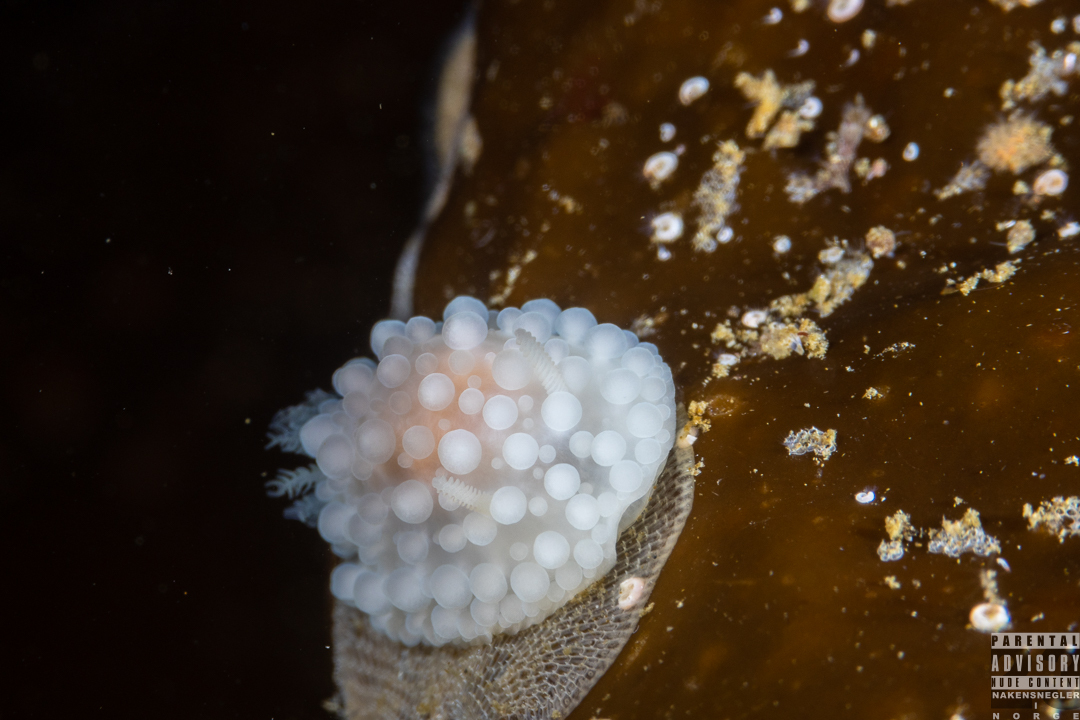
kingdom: Animalia
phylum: Mollusca
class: Gastropoda
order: Nudibranchia
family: Onchidorididae
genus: Adalaria
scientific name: Adalaria loveni
